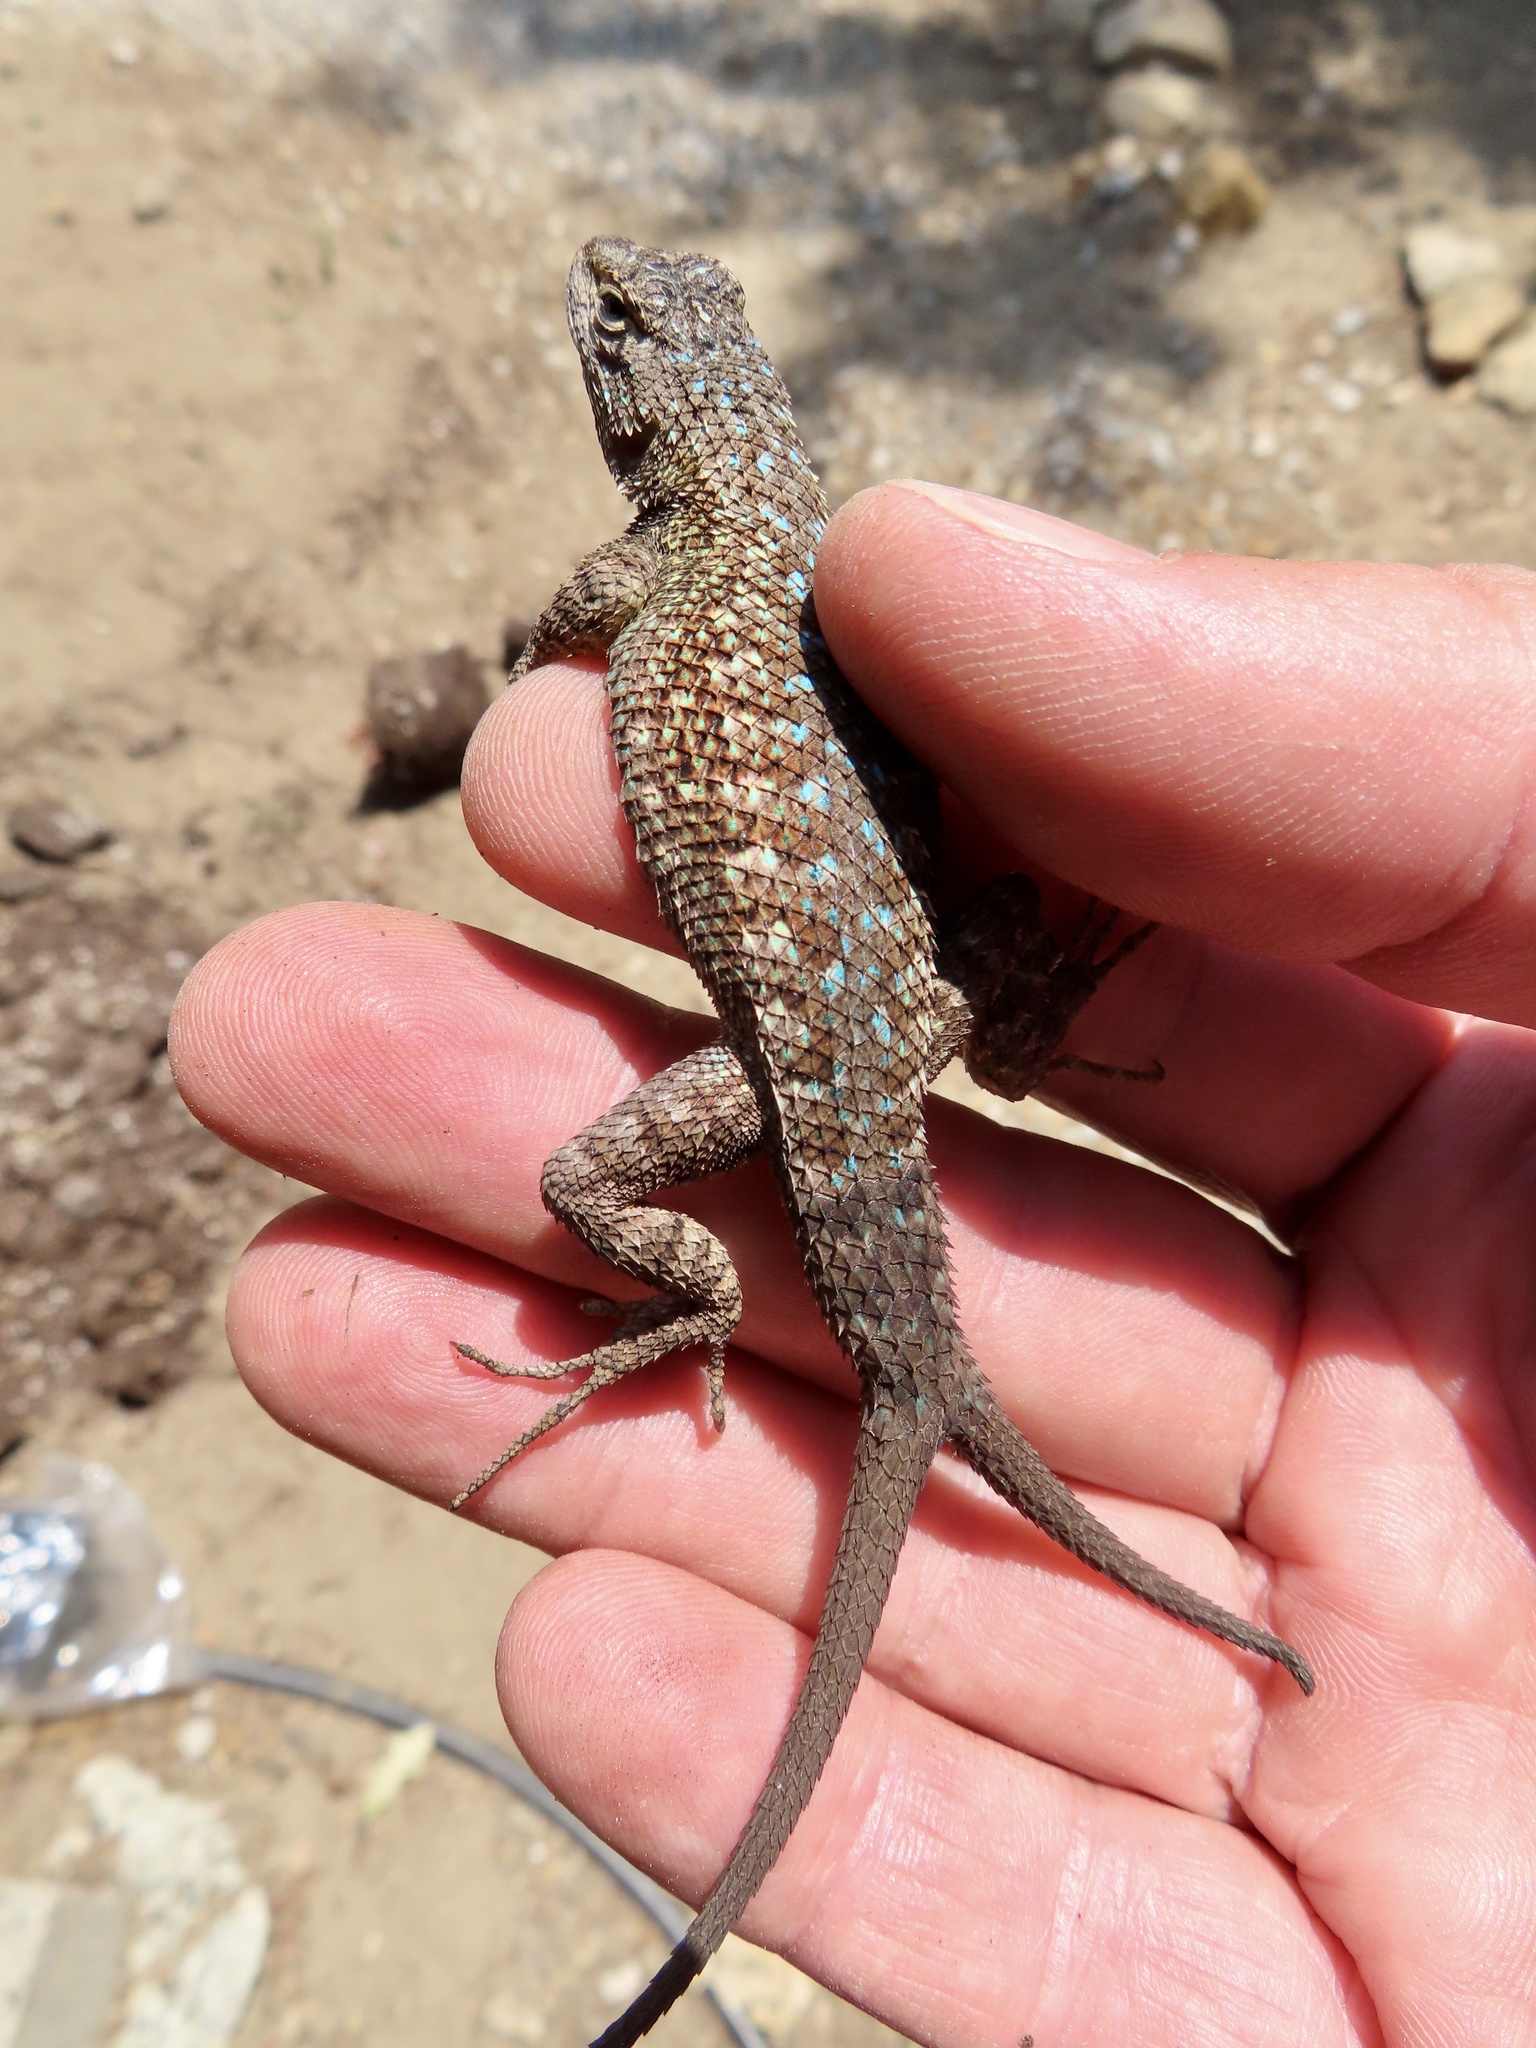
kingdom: Animalia
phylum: Chordata
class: Squamata
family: Phrynosomatidae
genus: Sceloporus
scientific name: Sceloporus occidentalis
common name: Western fence lizard
